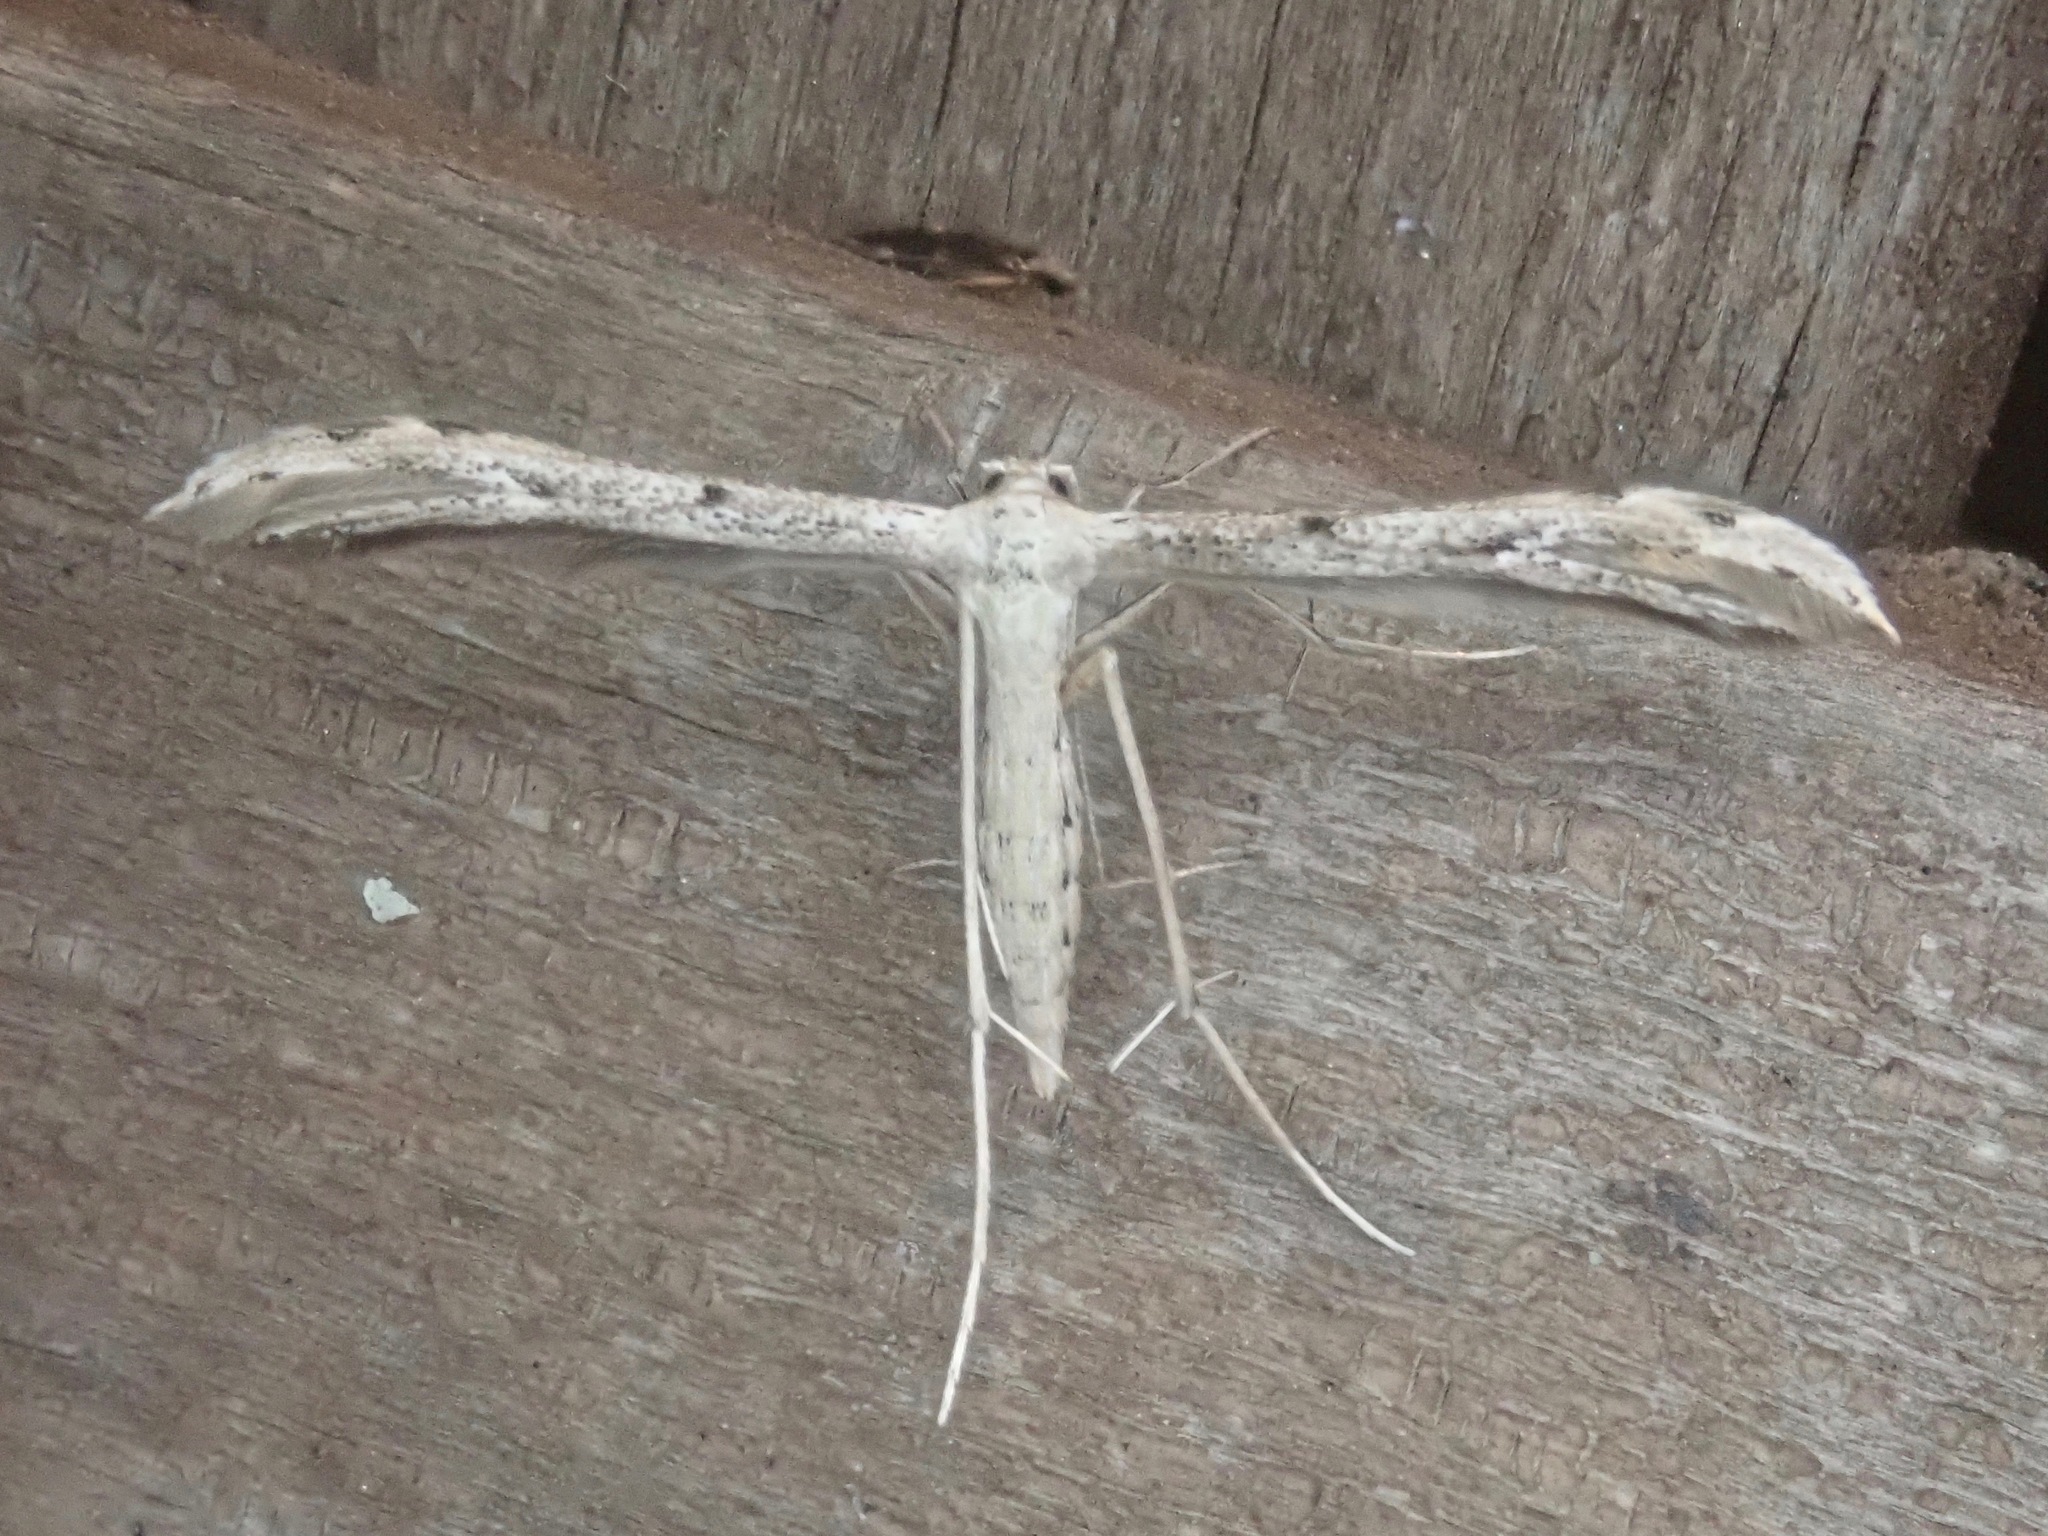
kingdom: Animalia
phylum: Arthropoda
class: Insecta
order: Lepidoptera
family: Pterophoridae
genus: Pselnophorus
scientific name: Pselnophorus belfragei
